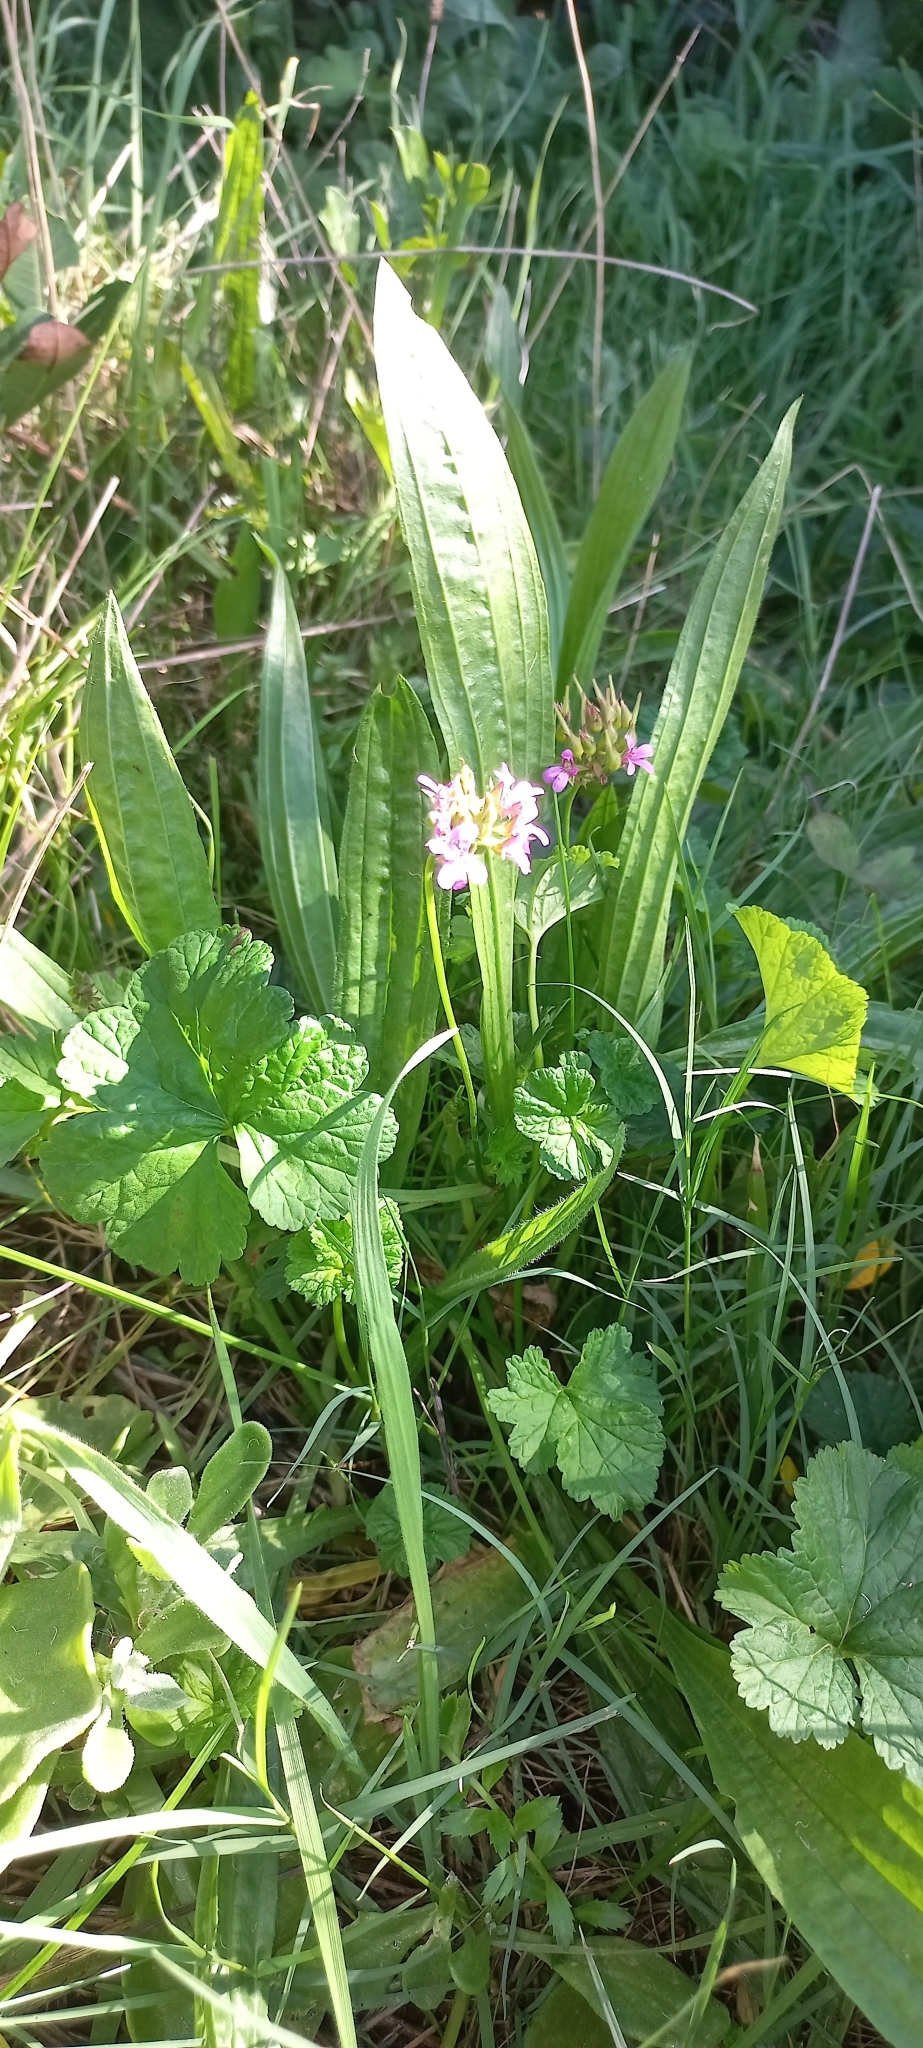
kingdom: Plantae
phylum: Tracheophyta
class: Magnoliopsida
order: Geraniales
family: Geraniaceae
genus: Pelargonium
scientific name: Pelargonium grossularioides
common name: Gooseberry geranium
